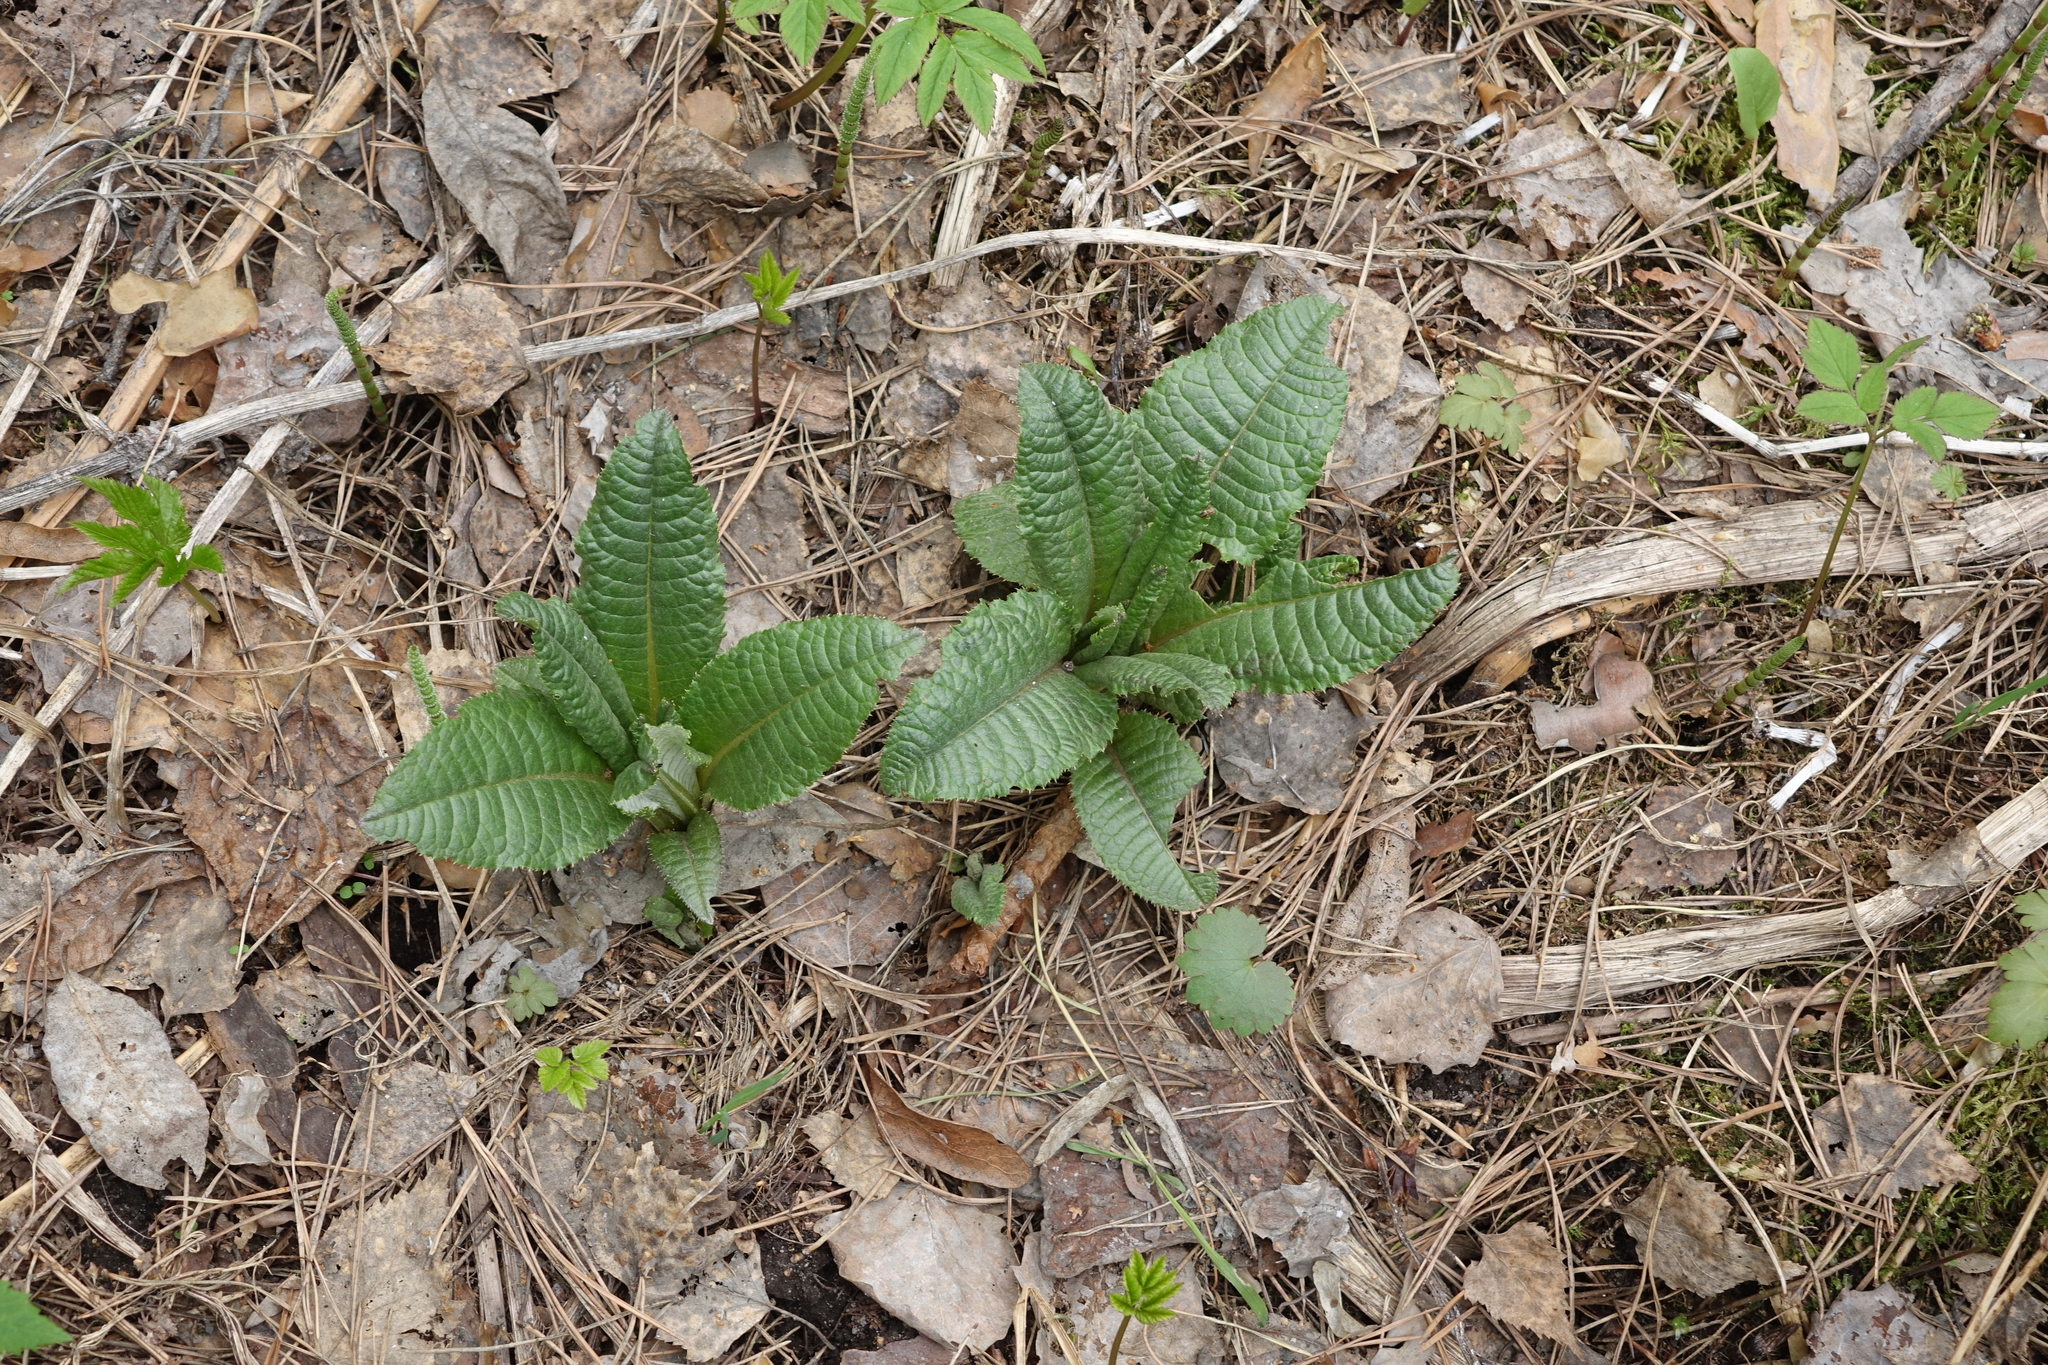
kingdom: Plantae
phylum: Tracheophyta
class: Magnoliopsida
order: Asterales
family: Asteraceae
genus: Cirsium
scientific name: Cirsium helenioides
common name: Melancholy thistle
